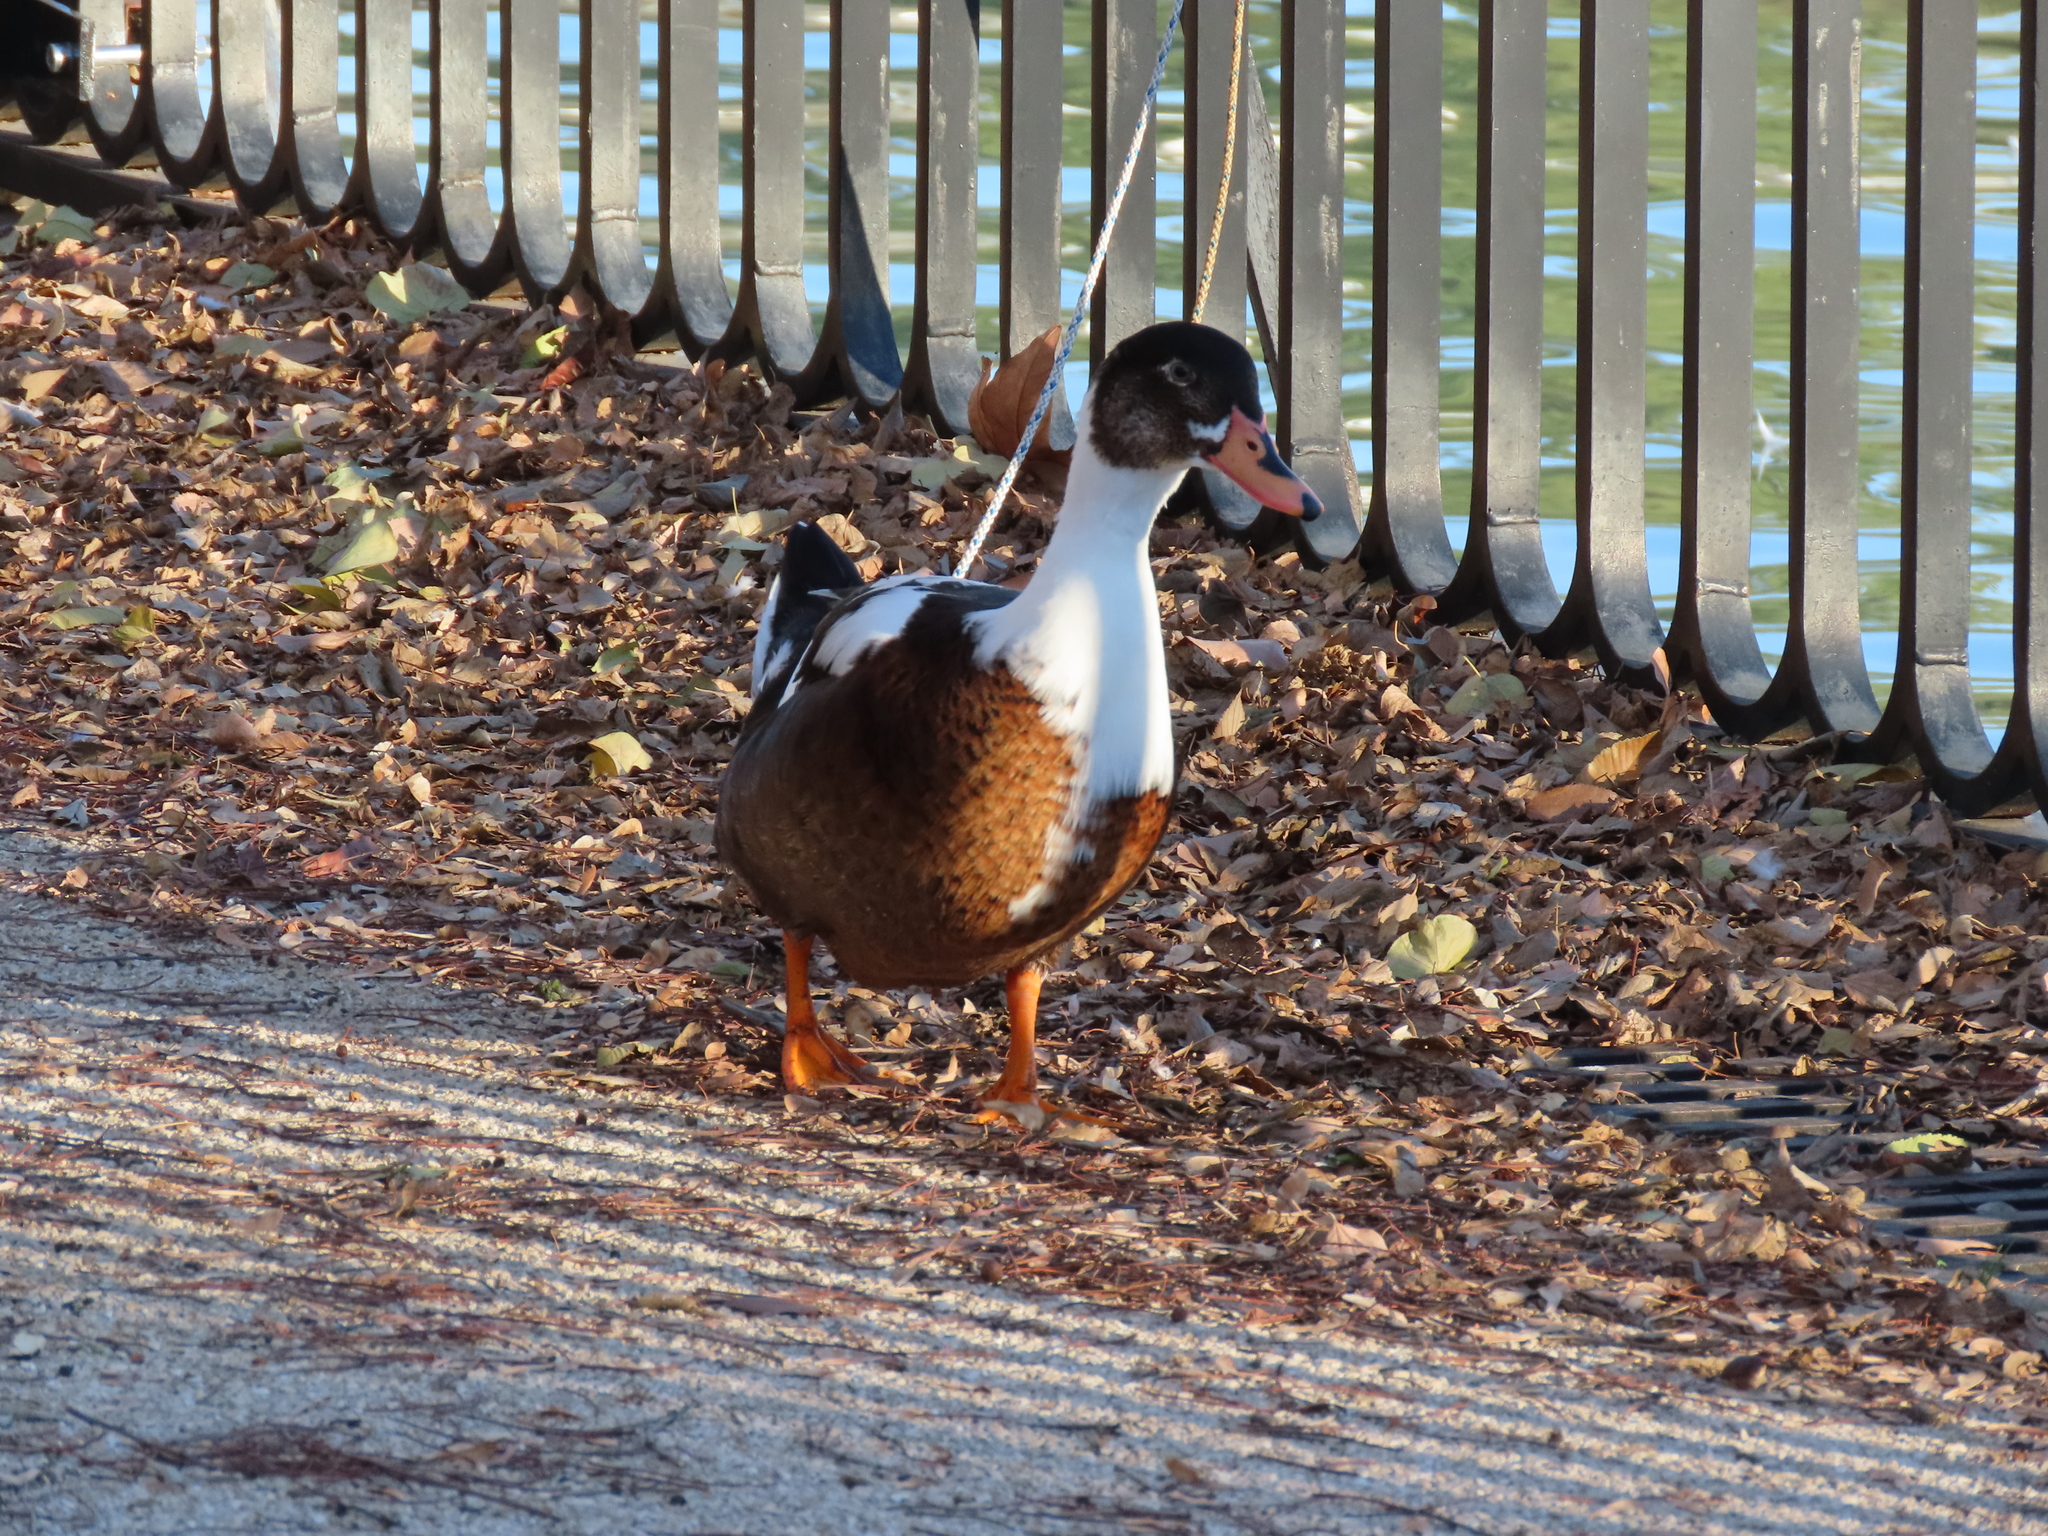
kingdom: Animalia
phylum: Chordata
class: Aves
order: Anseriformes
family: Anatidae
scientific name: Anatidae
